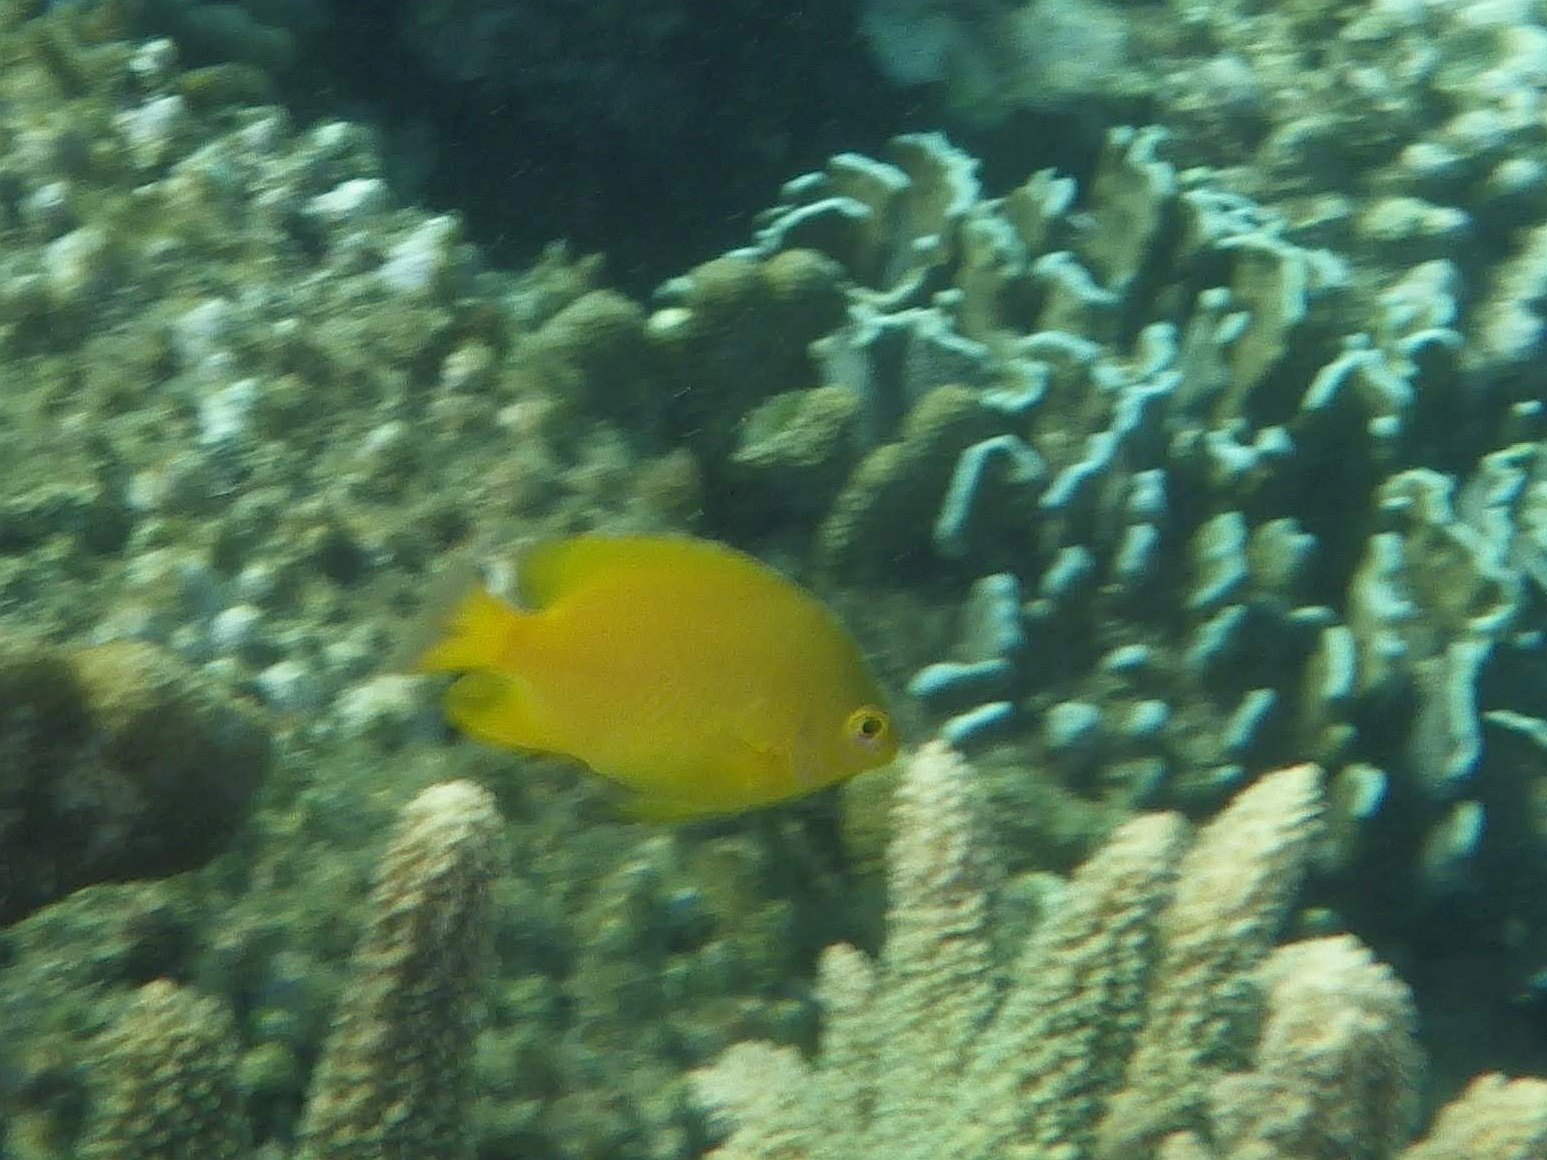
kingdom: Animalia
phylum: Chordata
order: Perciformes
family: Pomacentridae
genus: Pomacentrus
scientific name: Pomacentrus moluccensis
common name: Lemon damsel
